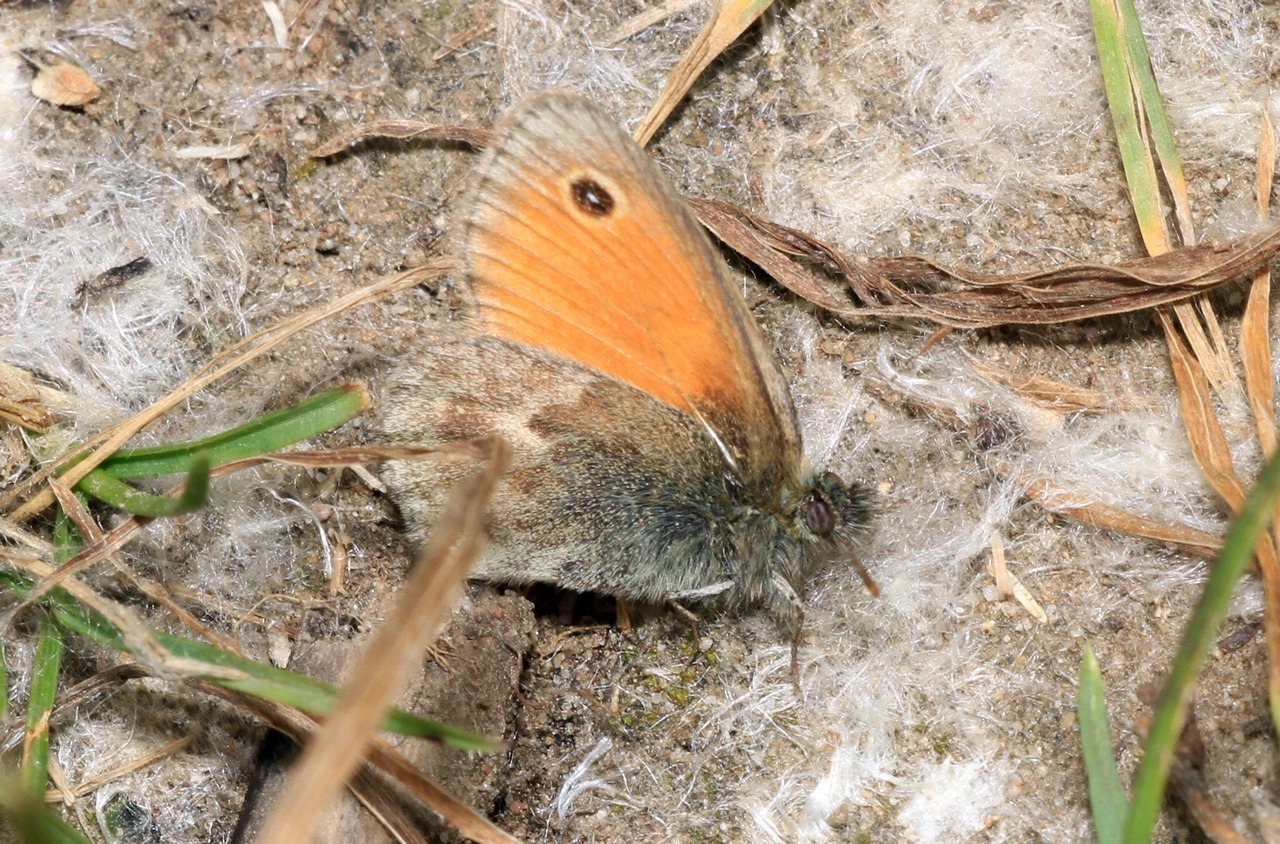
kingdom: Animalia
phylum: Arthropoda
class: Insecta
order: Lepidoptera
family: Nymphalidae
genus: Coenonympha
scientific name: Coenonympha pamphilus
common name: Small heath
